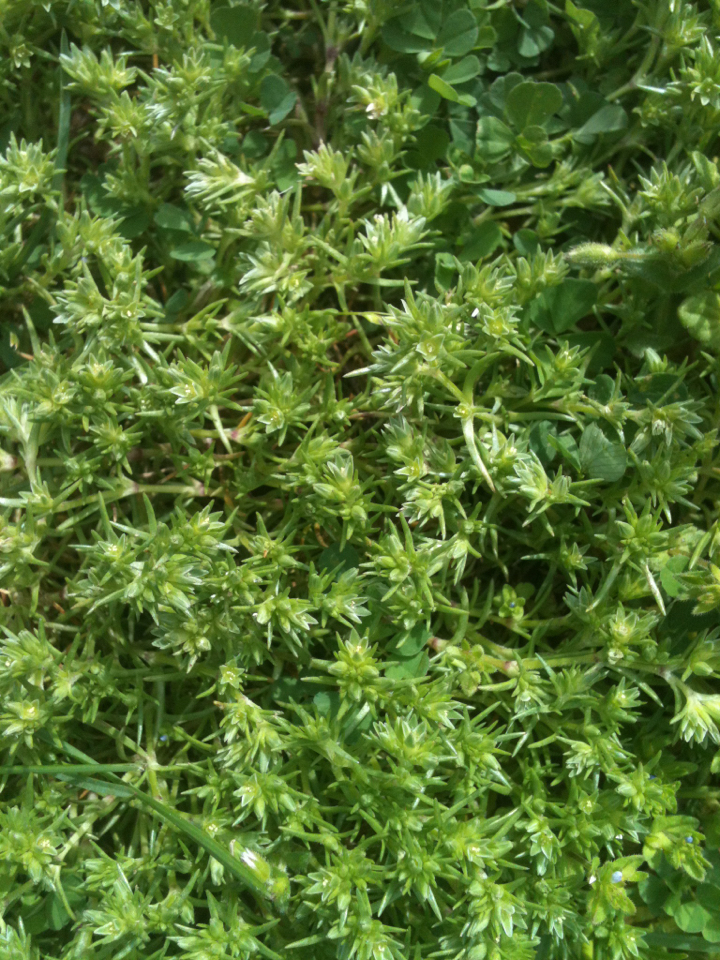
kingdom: Plantae
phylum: Tracheophyta
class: Magnoliopsida
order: Caryophyllales
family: Caryophyllaceae
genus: Scleranthus
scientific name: Scleranthus annuus
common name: Annual knawel
